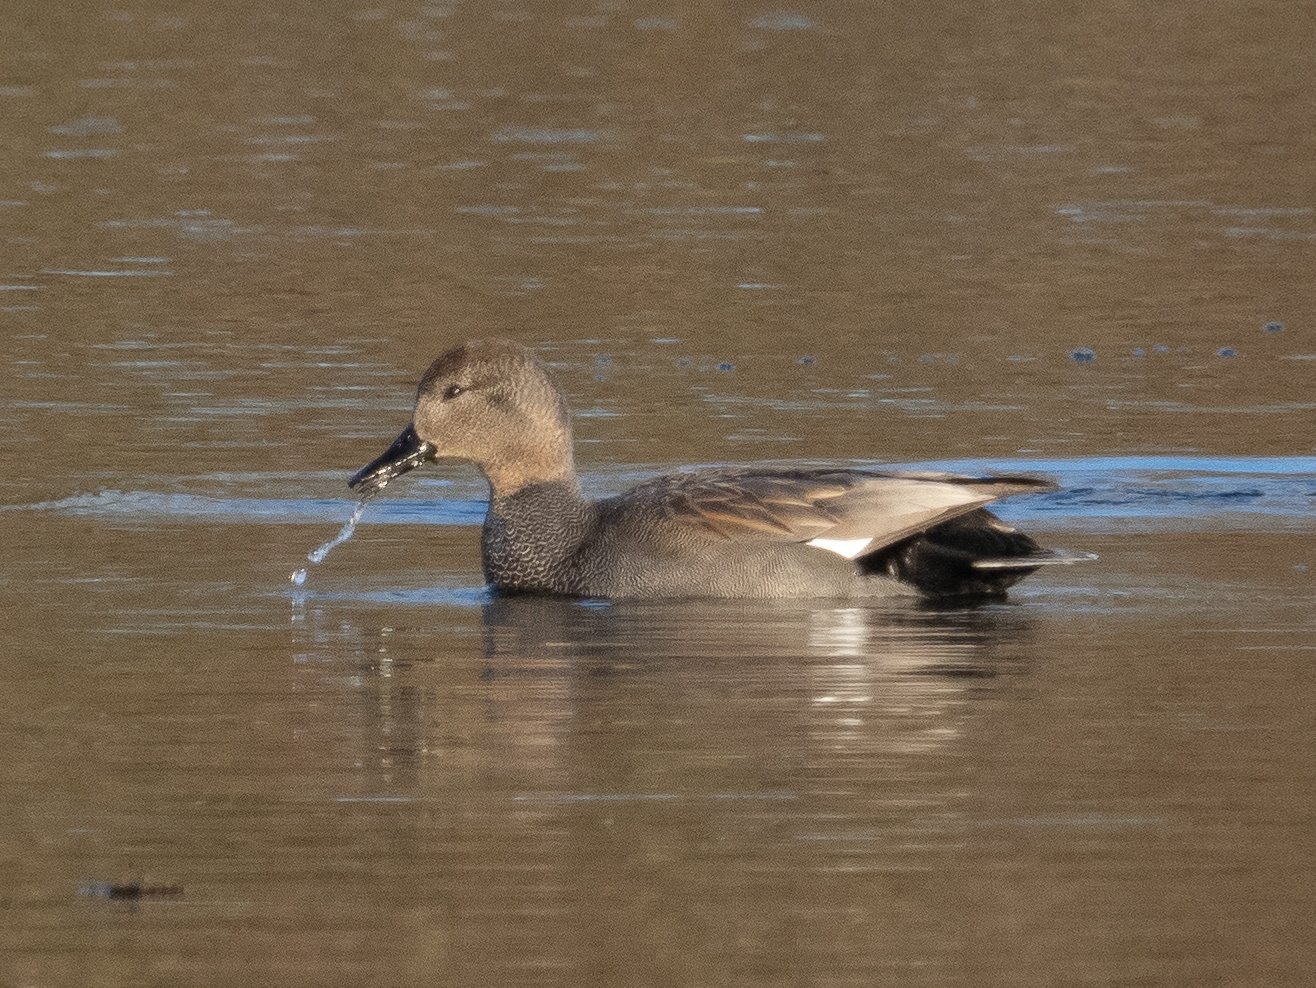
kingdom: Animalia
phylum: Chordata
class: Aves
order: Anseriformes
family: Anatidae
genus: Mareca
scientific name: Mareca strepera
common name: Gadwall
